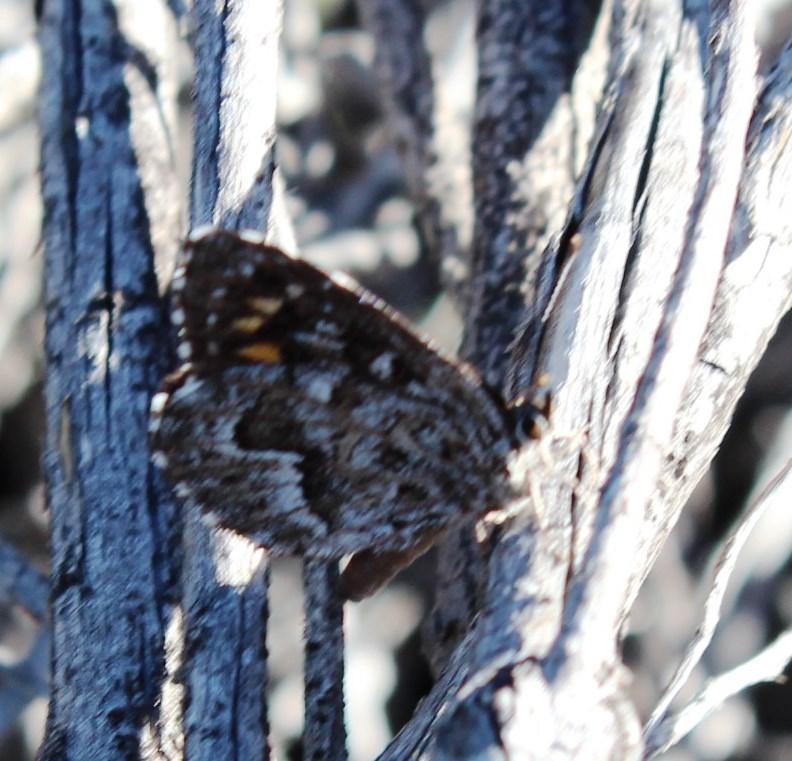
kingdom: Animalia
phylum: Arthropoda
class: Insecta
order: Lepidoptera
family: Lycaenidae
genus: Durbaniopsis
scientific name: Durbaniopsis saga
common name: Boland rocksitter
